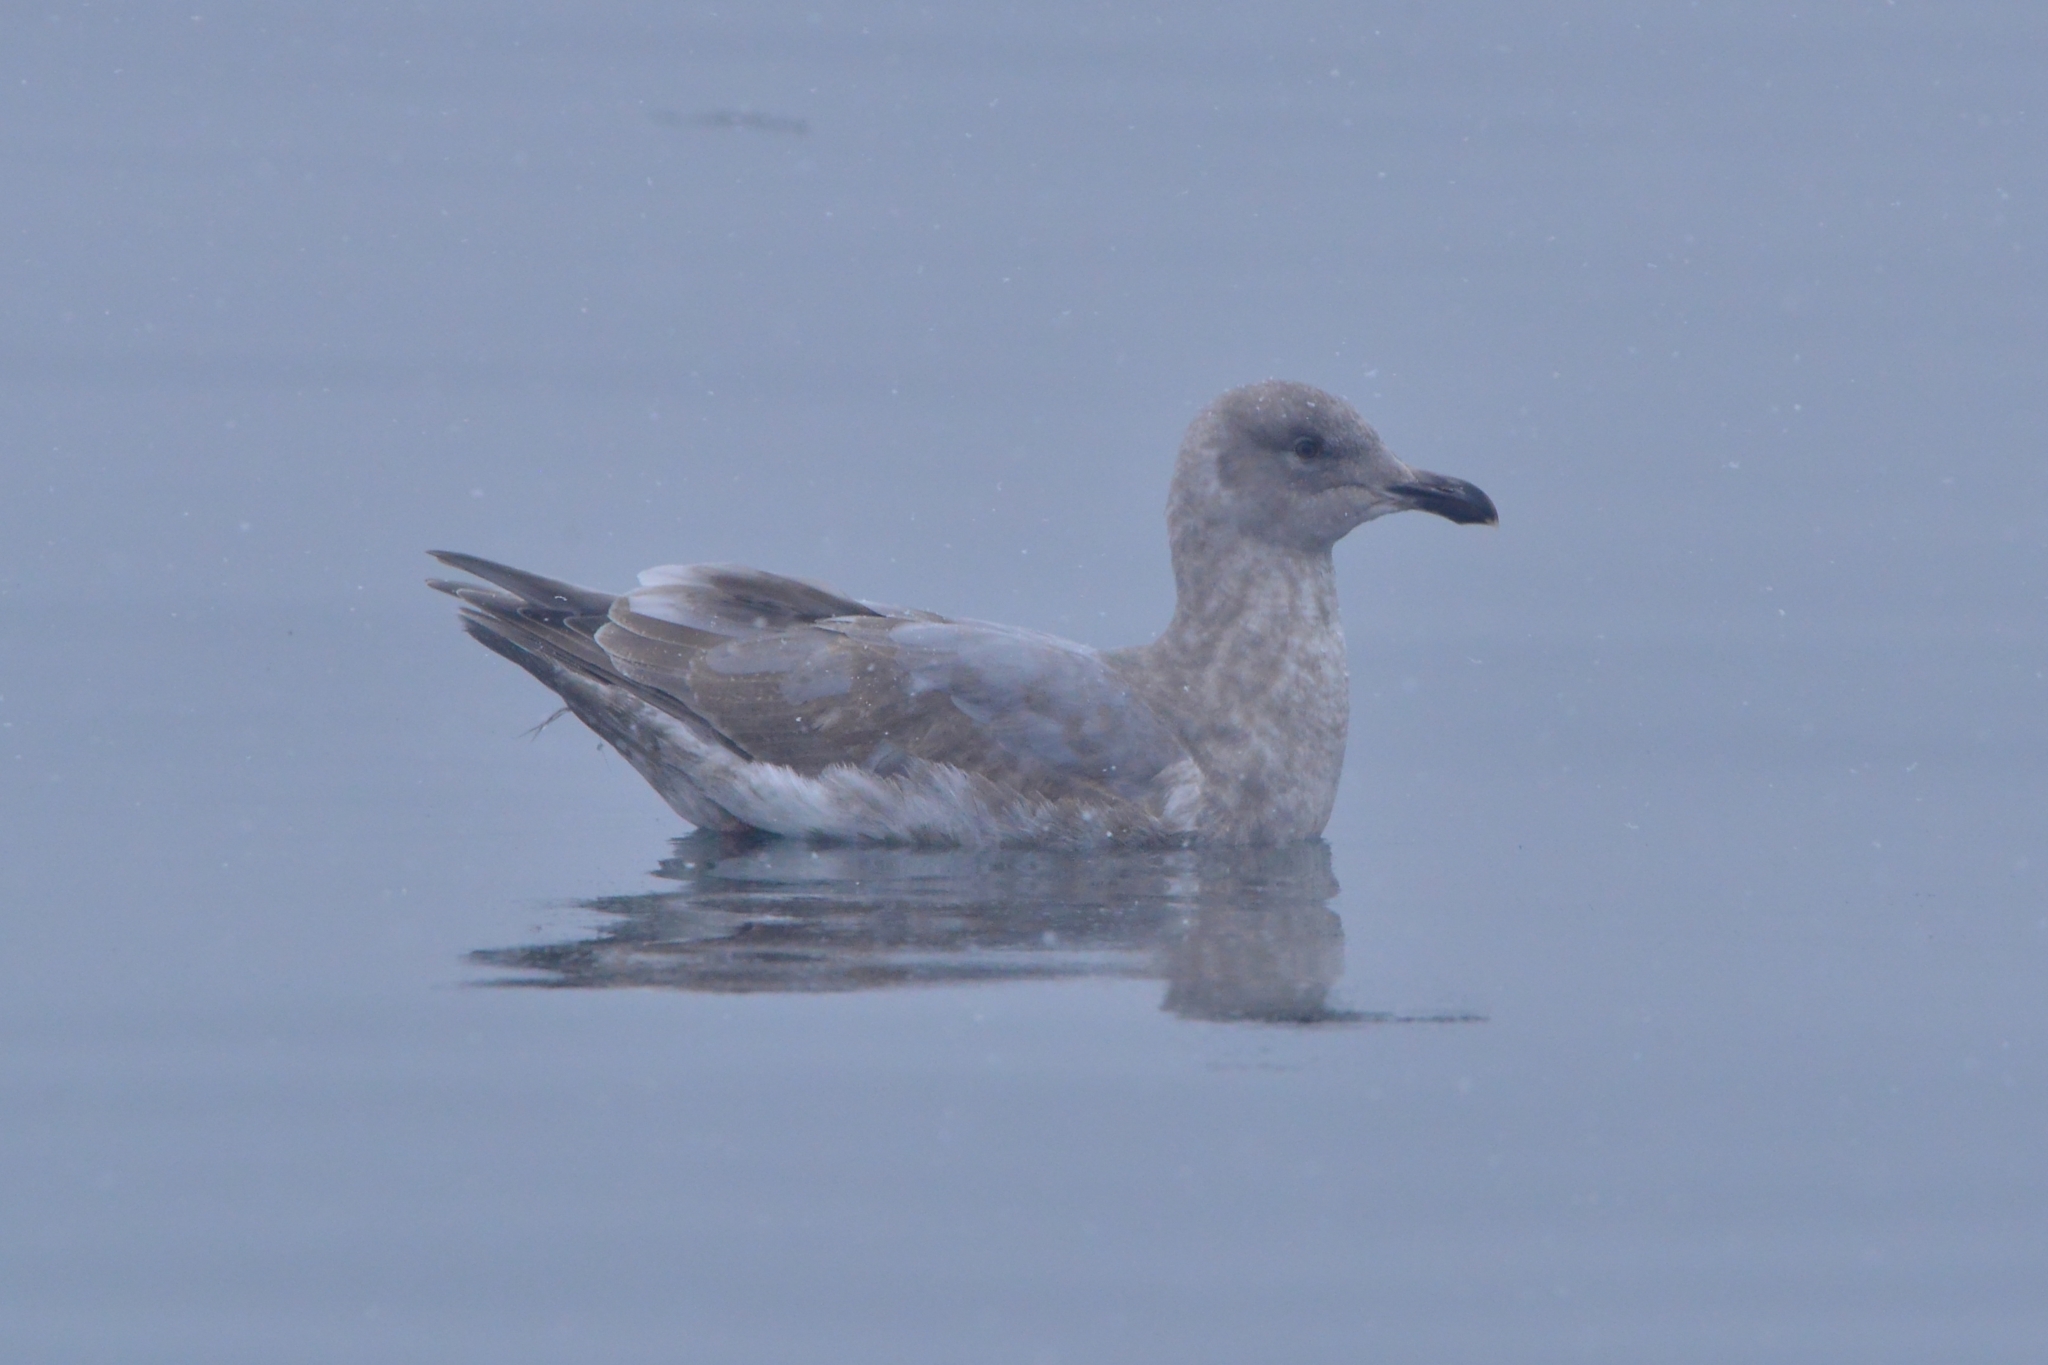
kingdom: Animalia
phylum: Chordata
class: Aves
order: Charadriiformes
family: Laridae
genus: Larus
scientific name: Larus glaucescens
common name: Glaucous-winged gull
